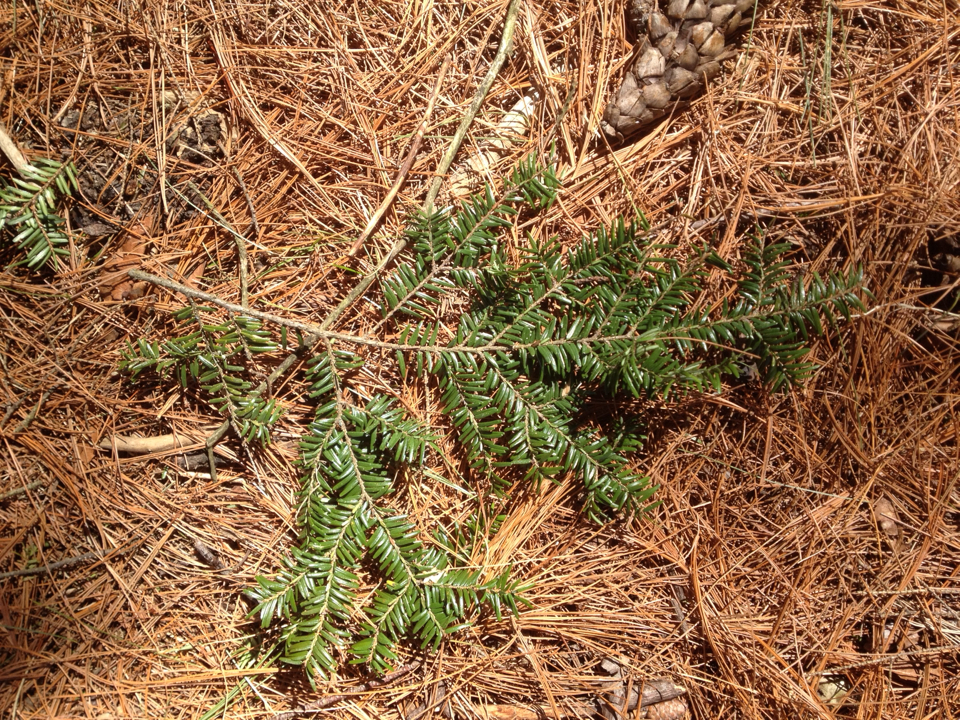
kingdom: Plantae
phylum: Tracheophyta
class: Pinopsida
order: Pinales
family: Pinaceae
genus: Tsuga
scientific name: Tsuga canadensis
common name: Eastern hemlock
